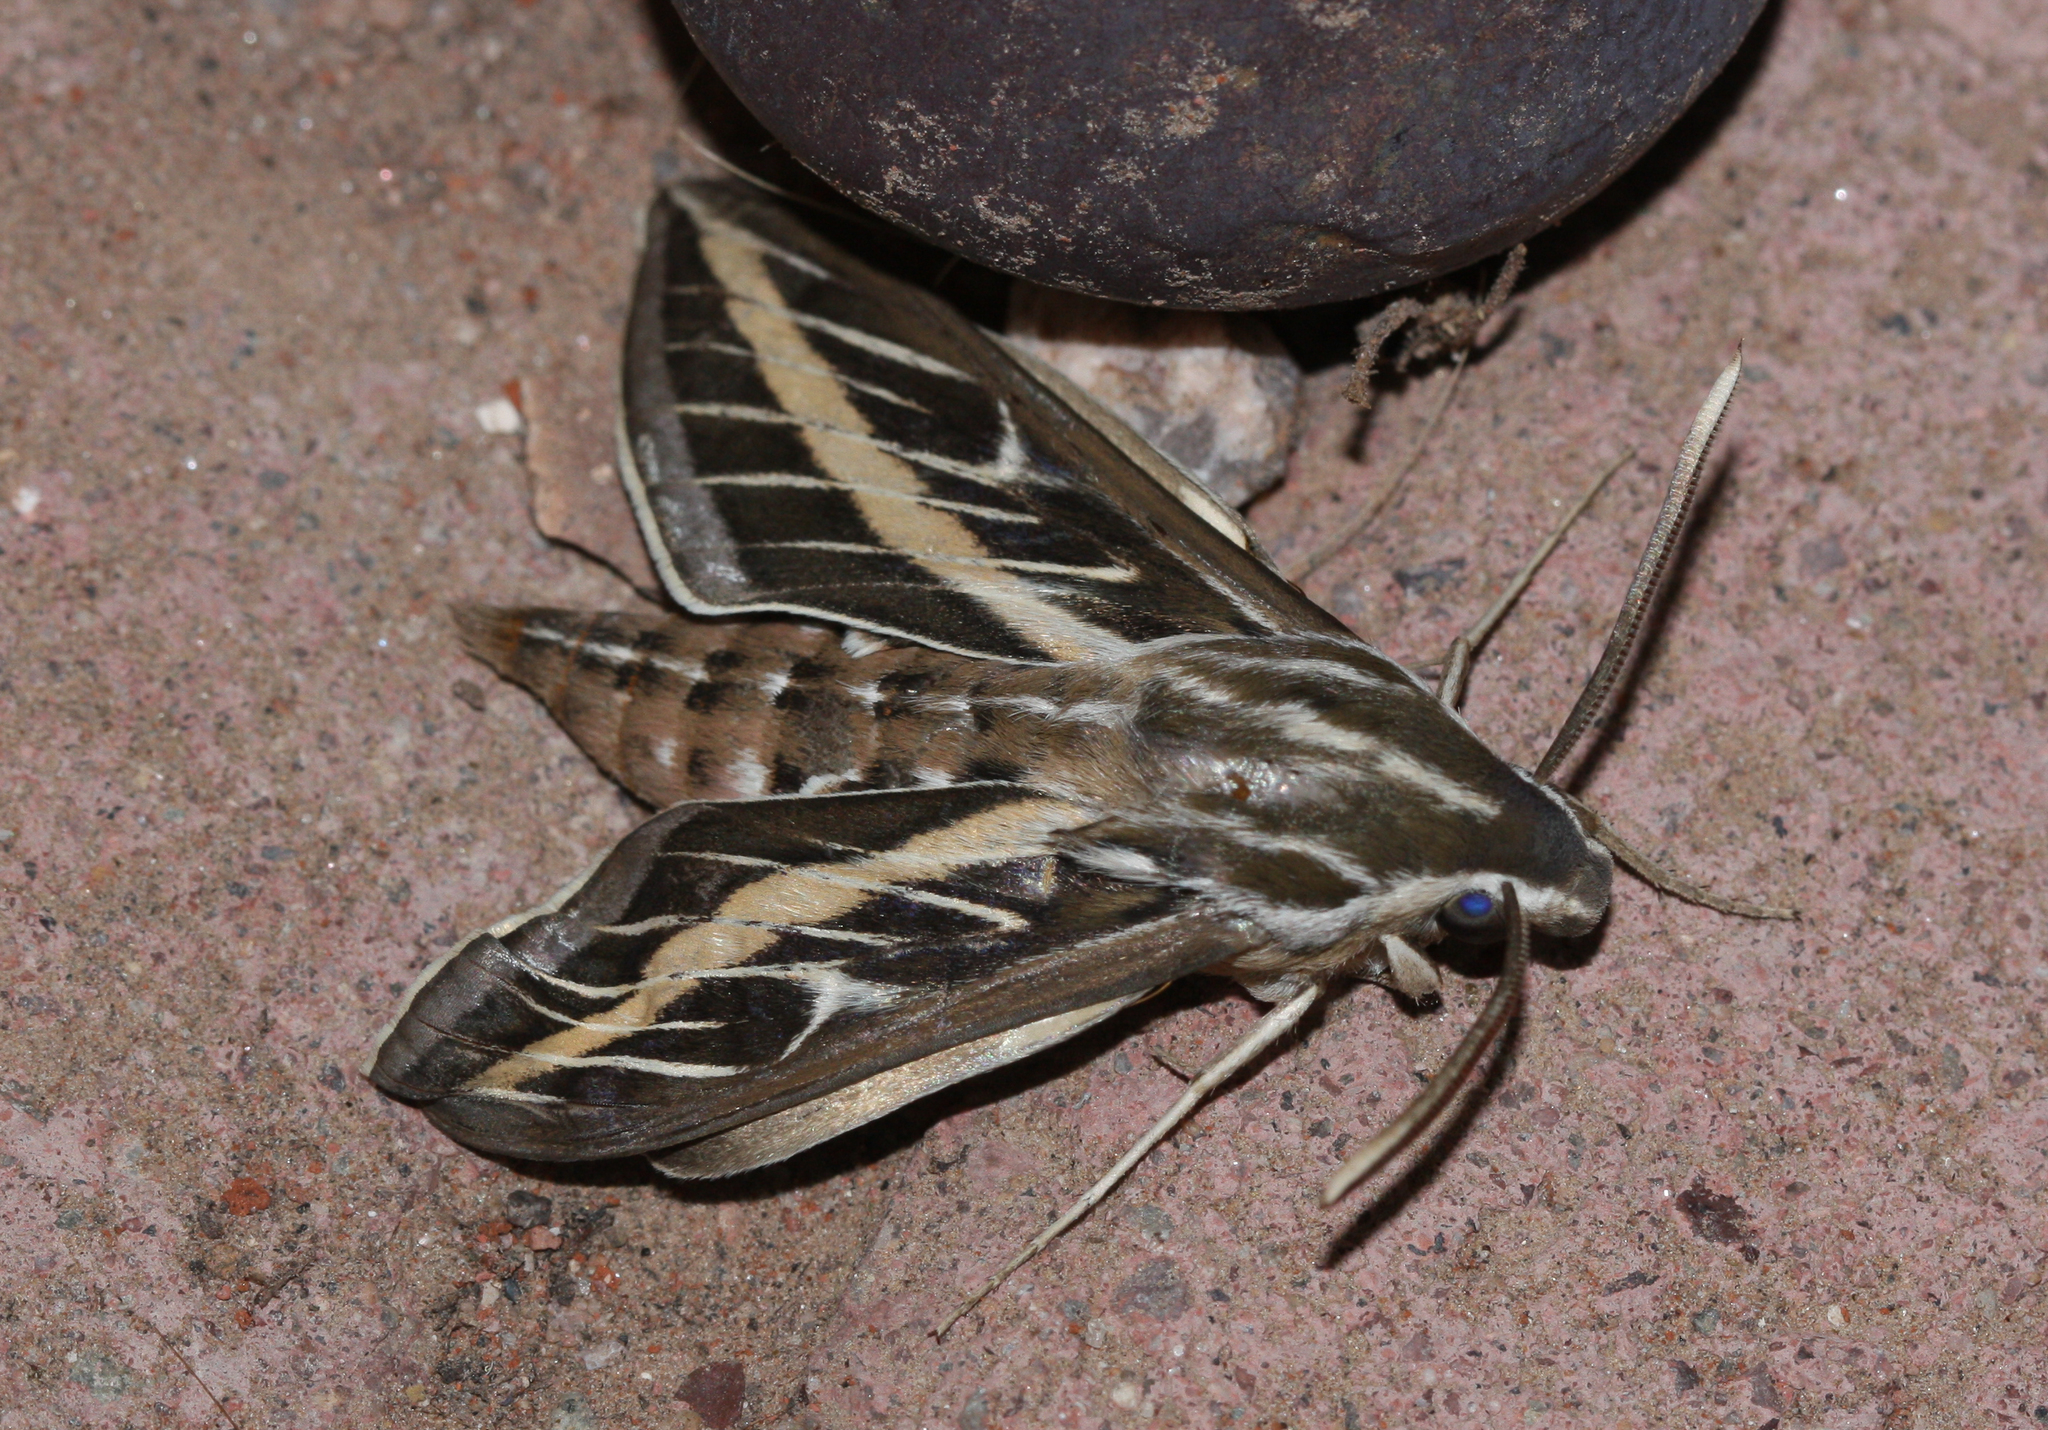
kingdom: Animalia
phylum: Arthropoda
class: Insecta
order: Lepidoptera
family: Sphingidae
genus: Hyles
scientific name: Hyles lineata
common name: White-lined sphinx
